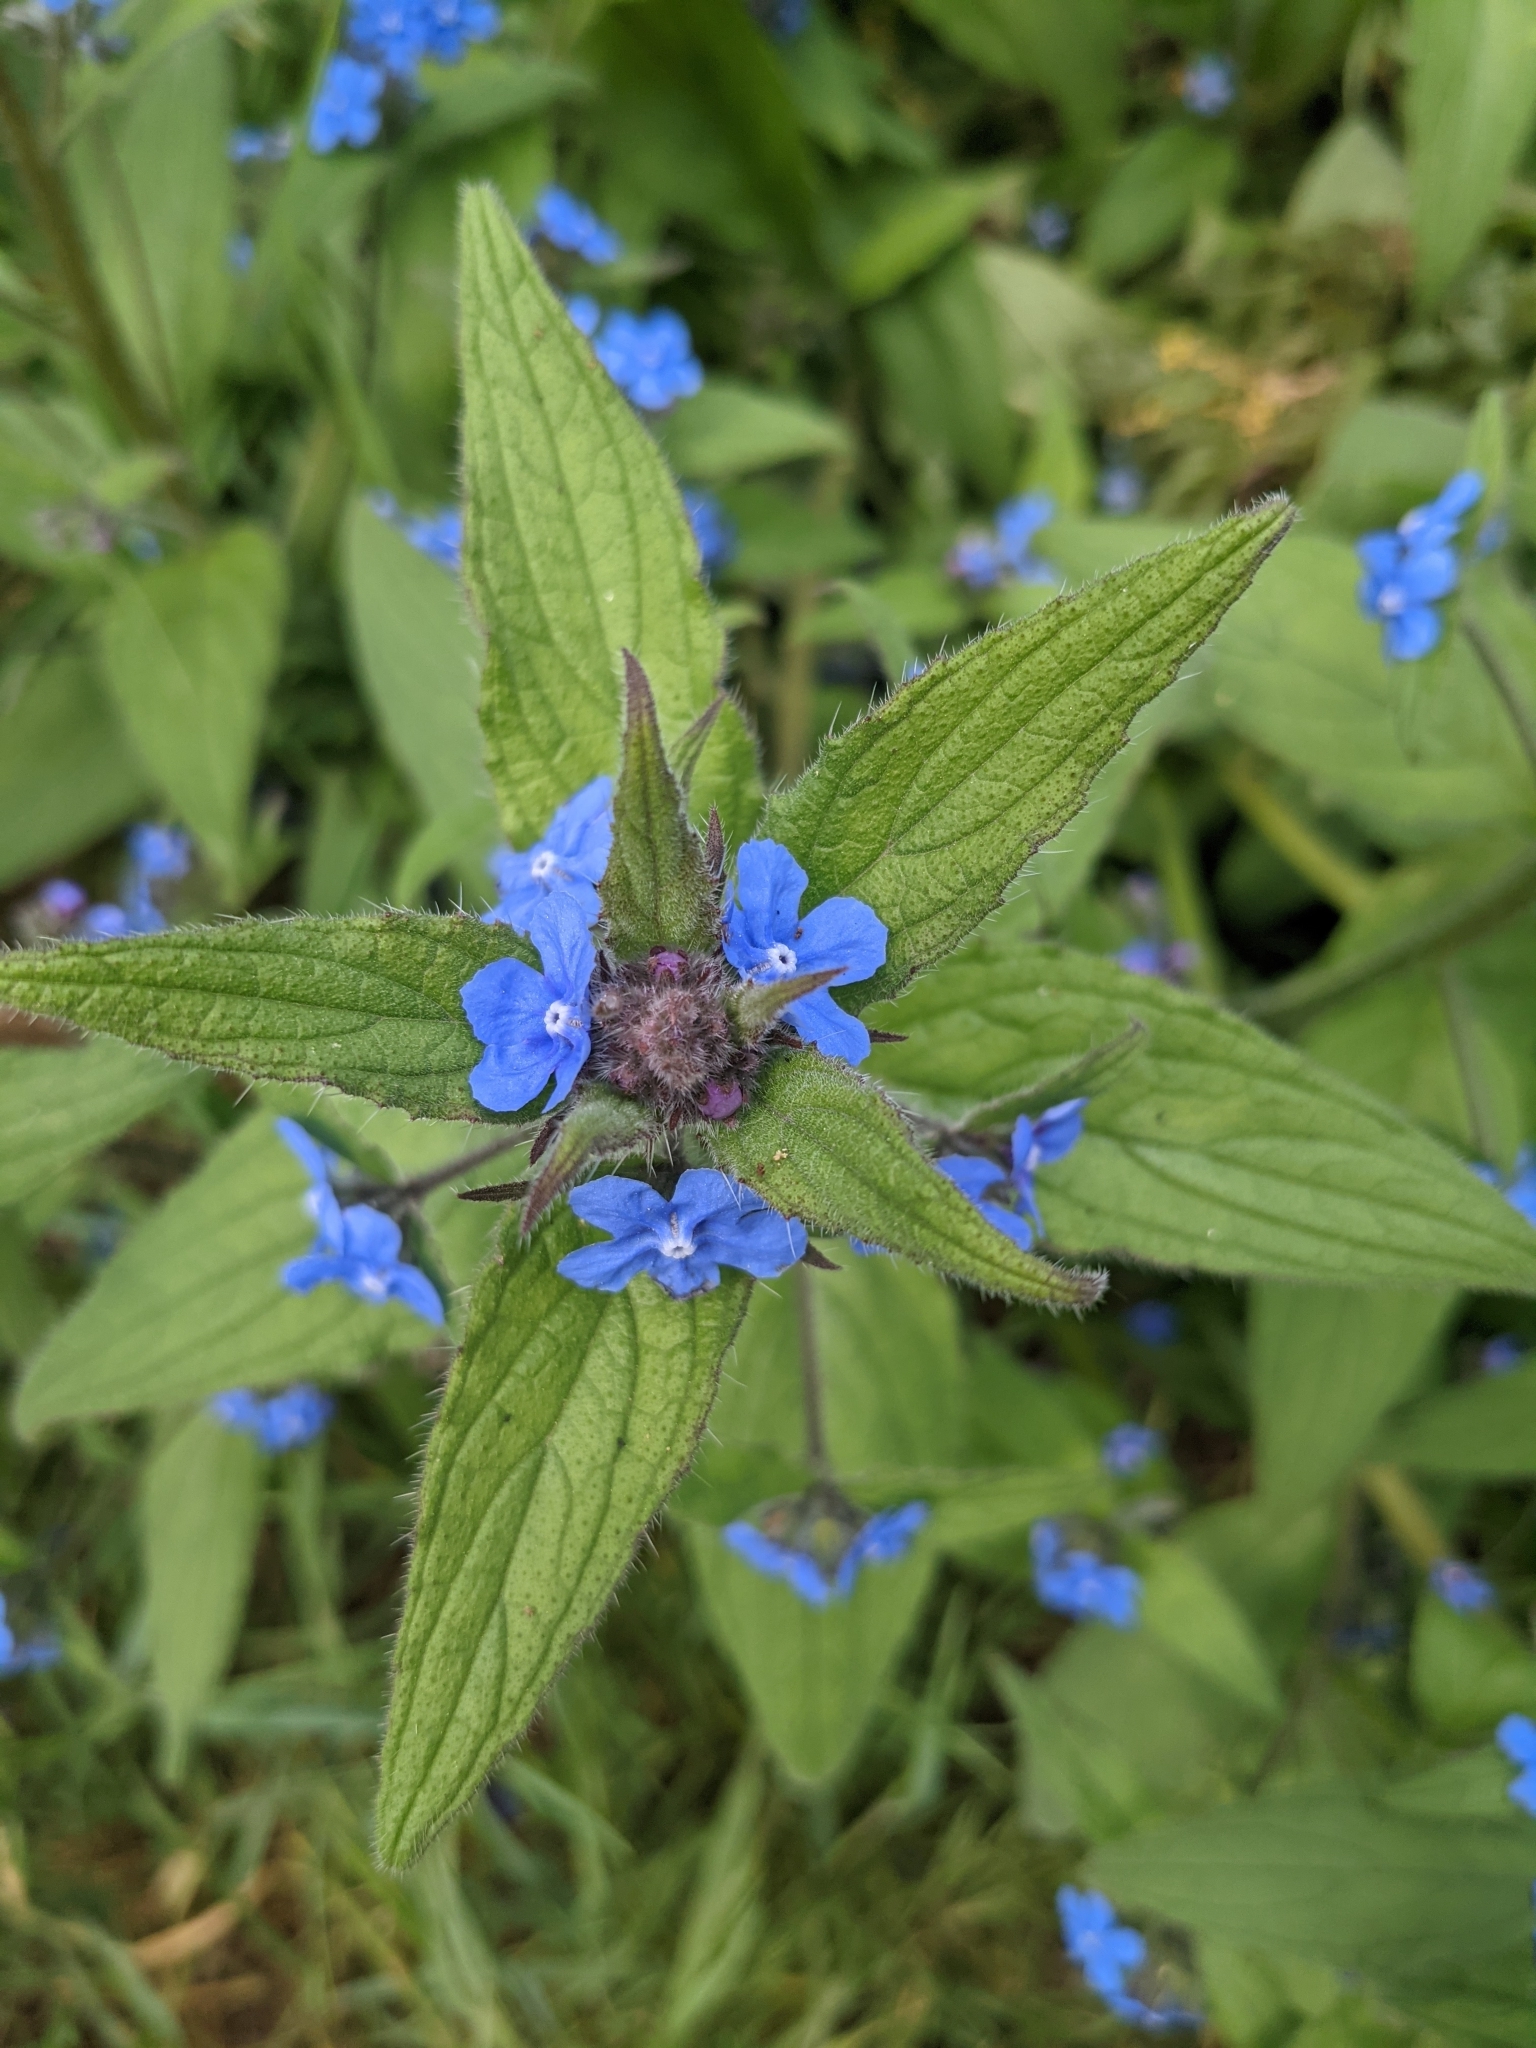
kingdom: Plantae
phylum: Tracheophyta
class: Magnoliopsida
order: Boraginales
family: Boraginaceae
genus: Pentaglottis
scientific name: Pentaglottis sempervirens
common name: Green alkanet
